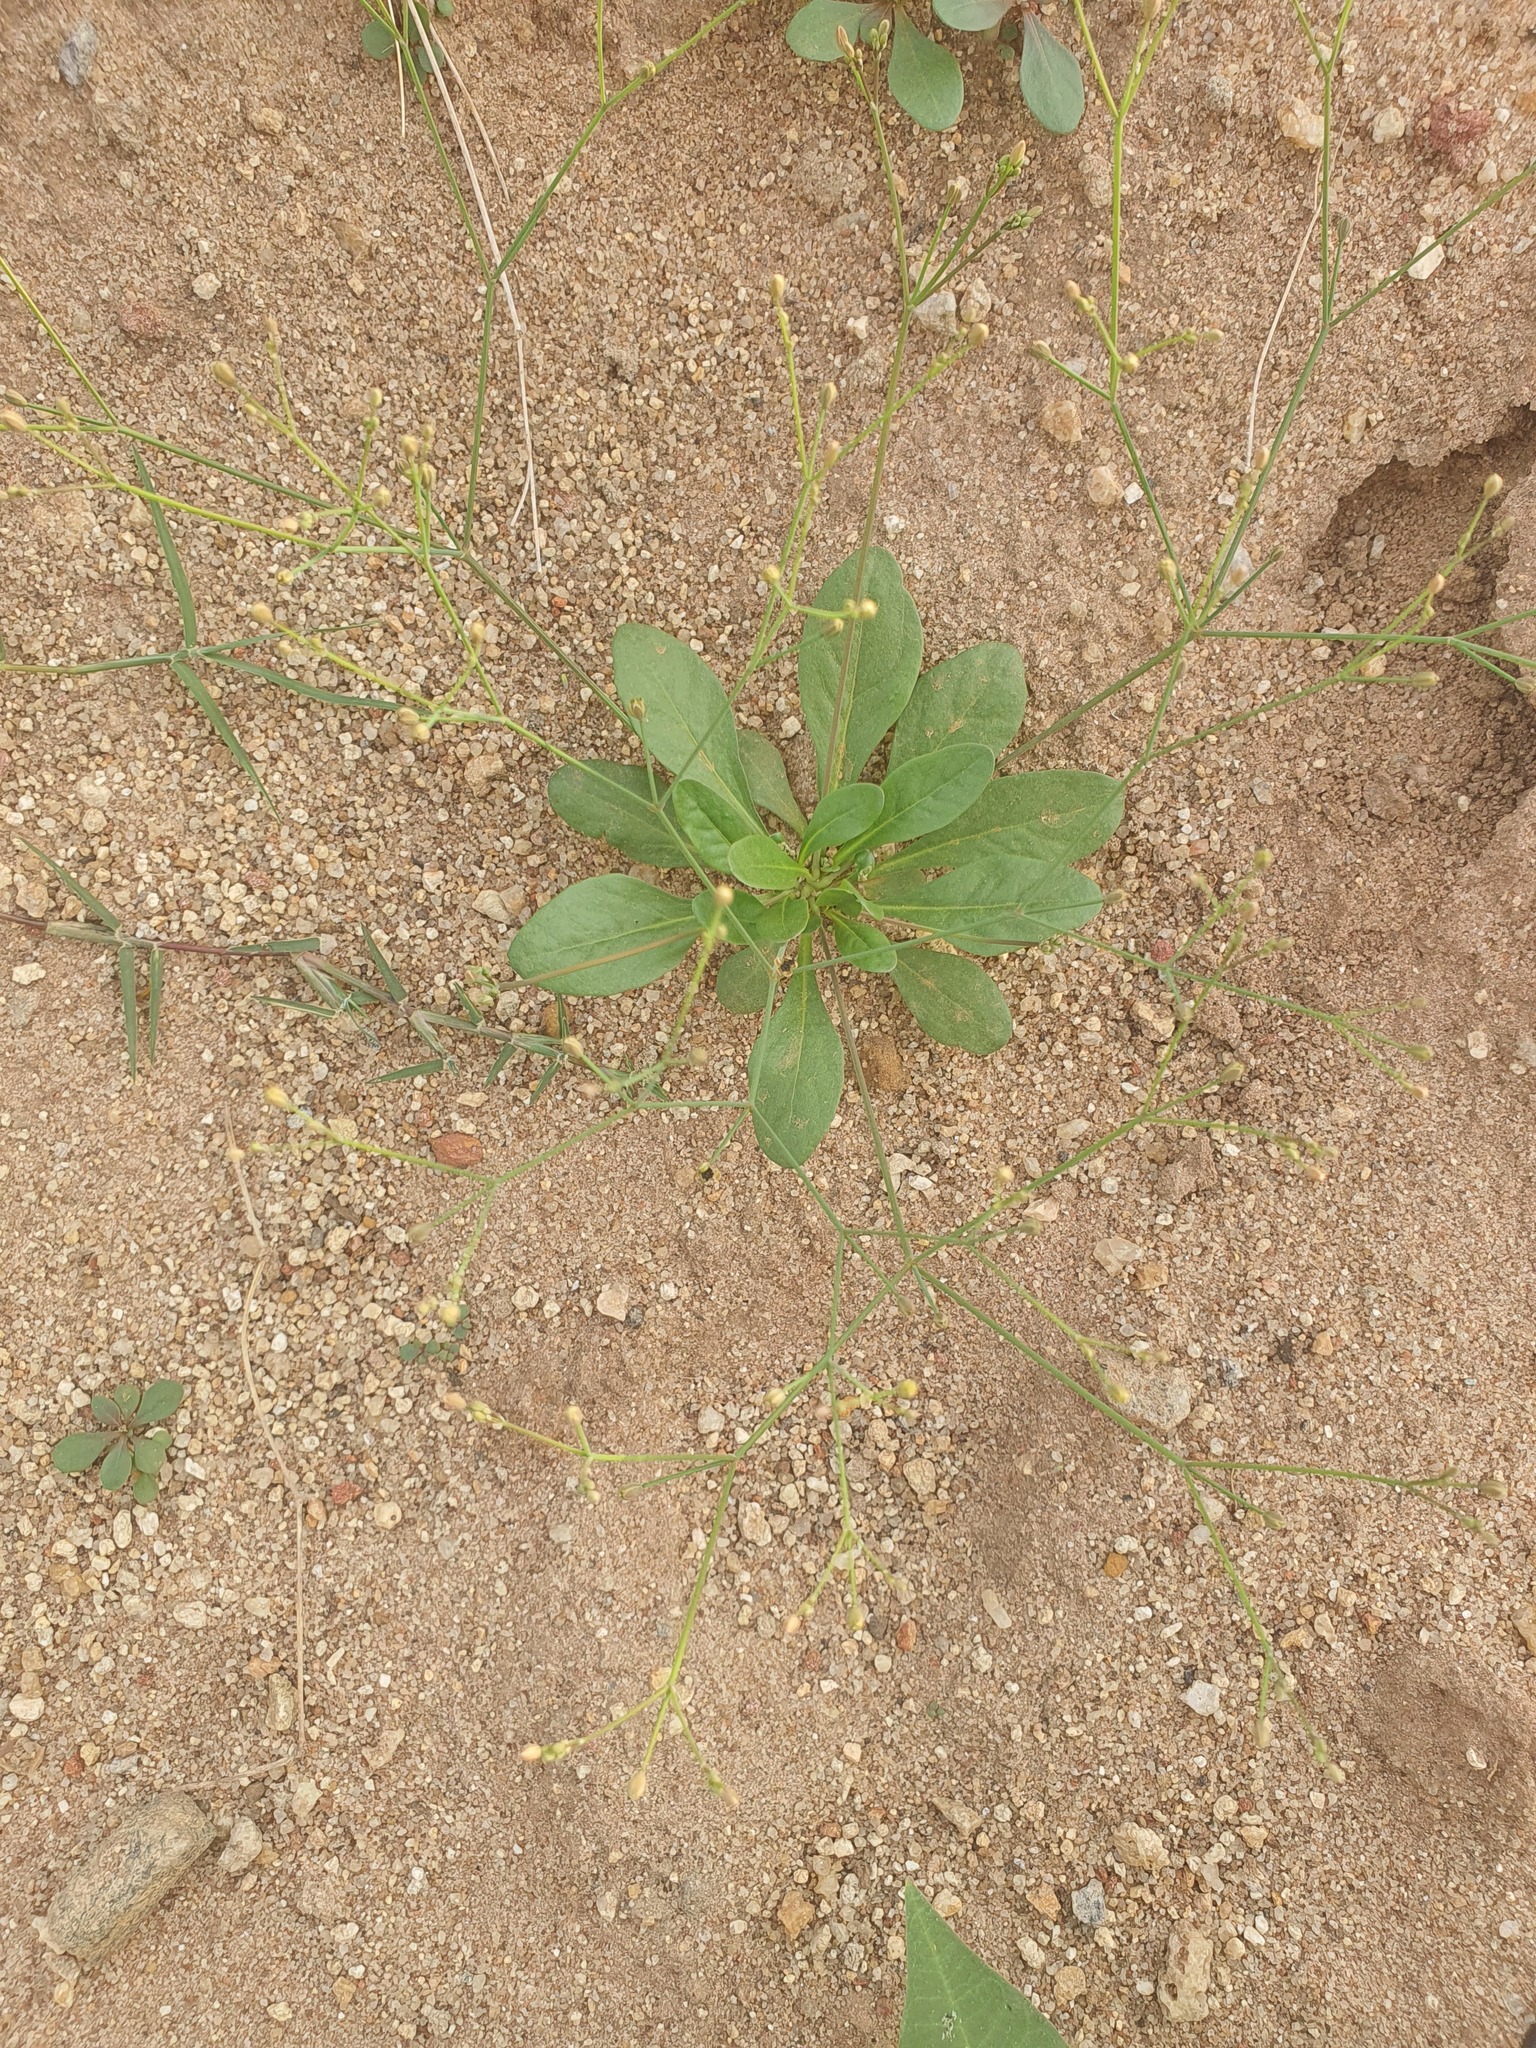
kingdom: Plantae
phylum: Tracheophyta
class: Magnoliopsida
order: Caryophyllales
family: Molluginaceae
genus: Paramollugo
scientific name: Paramollugo nudicaulis
